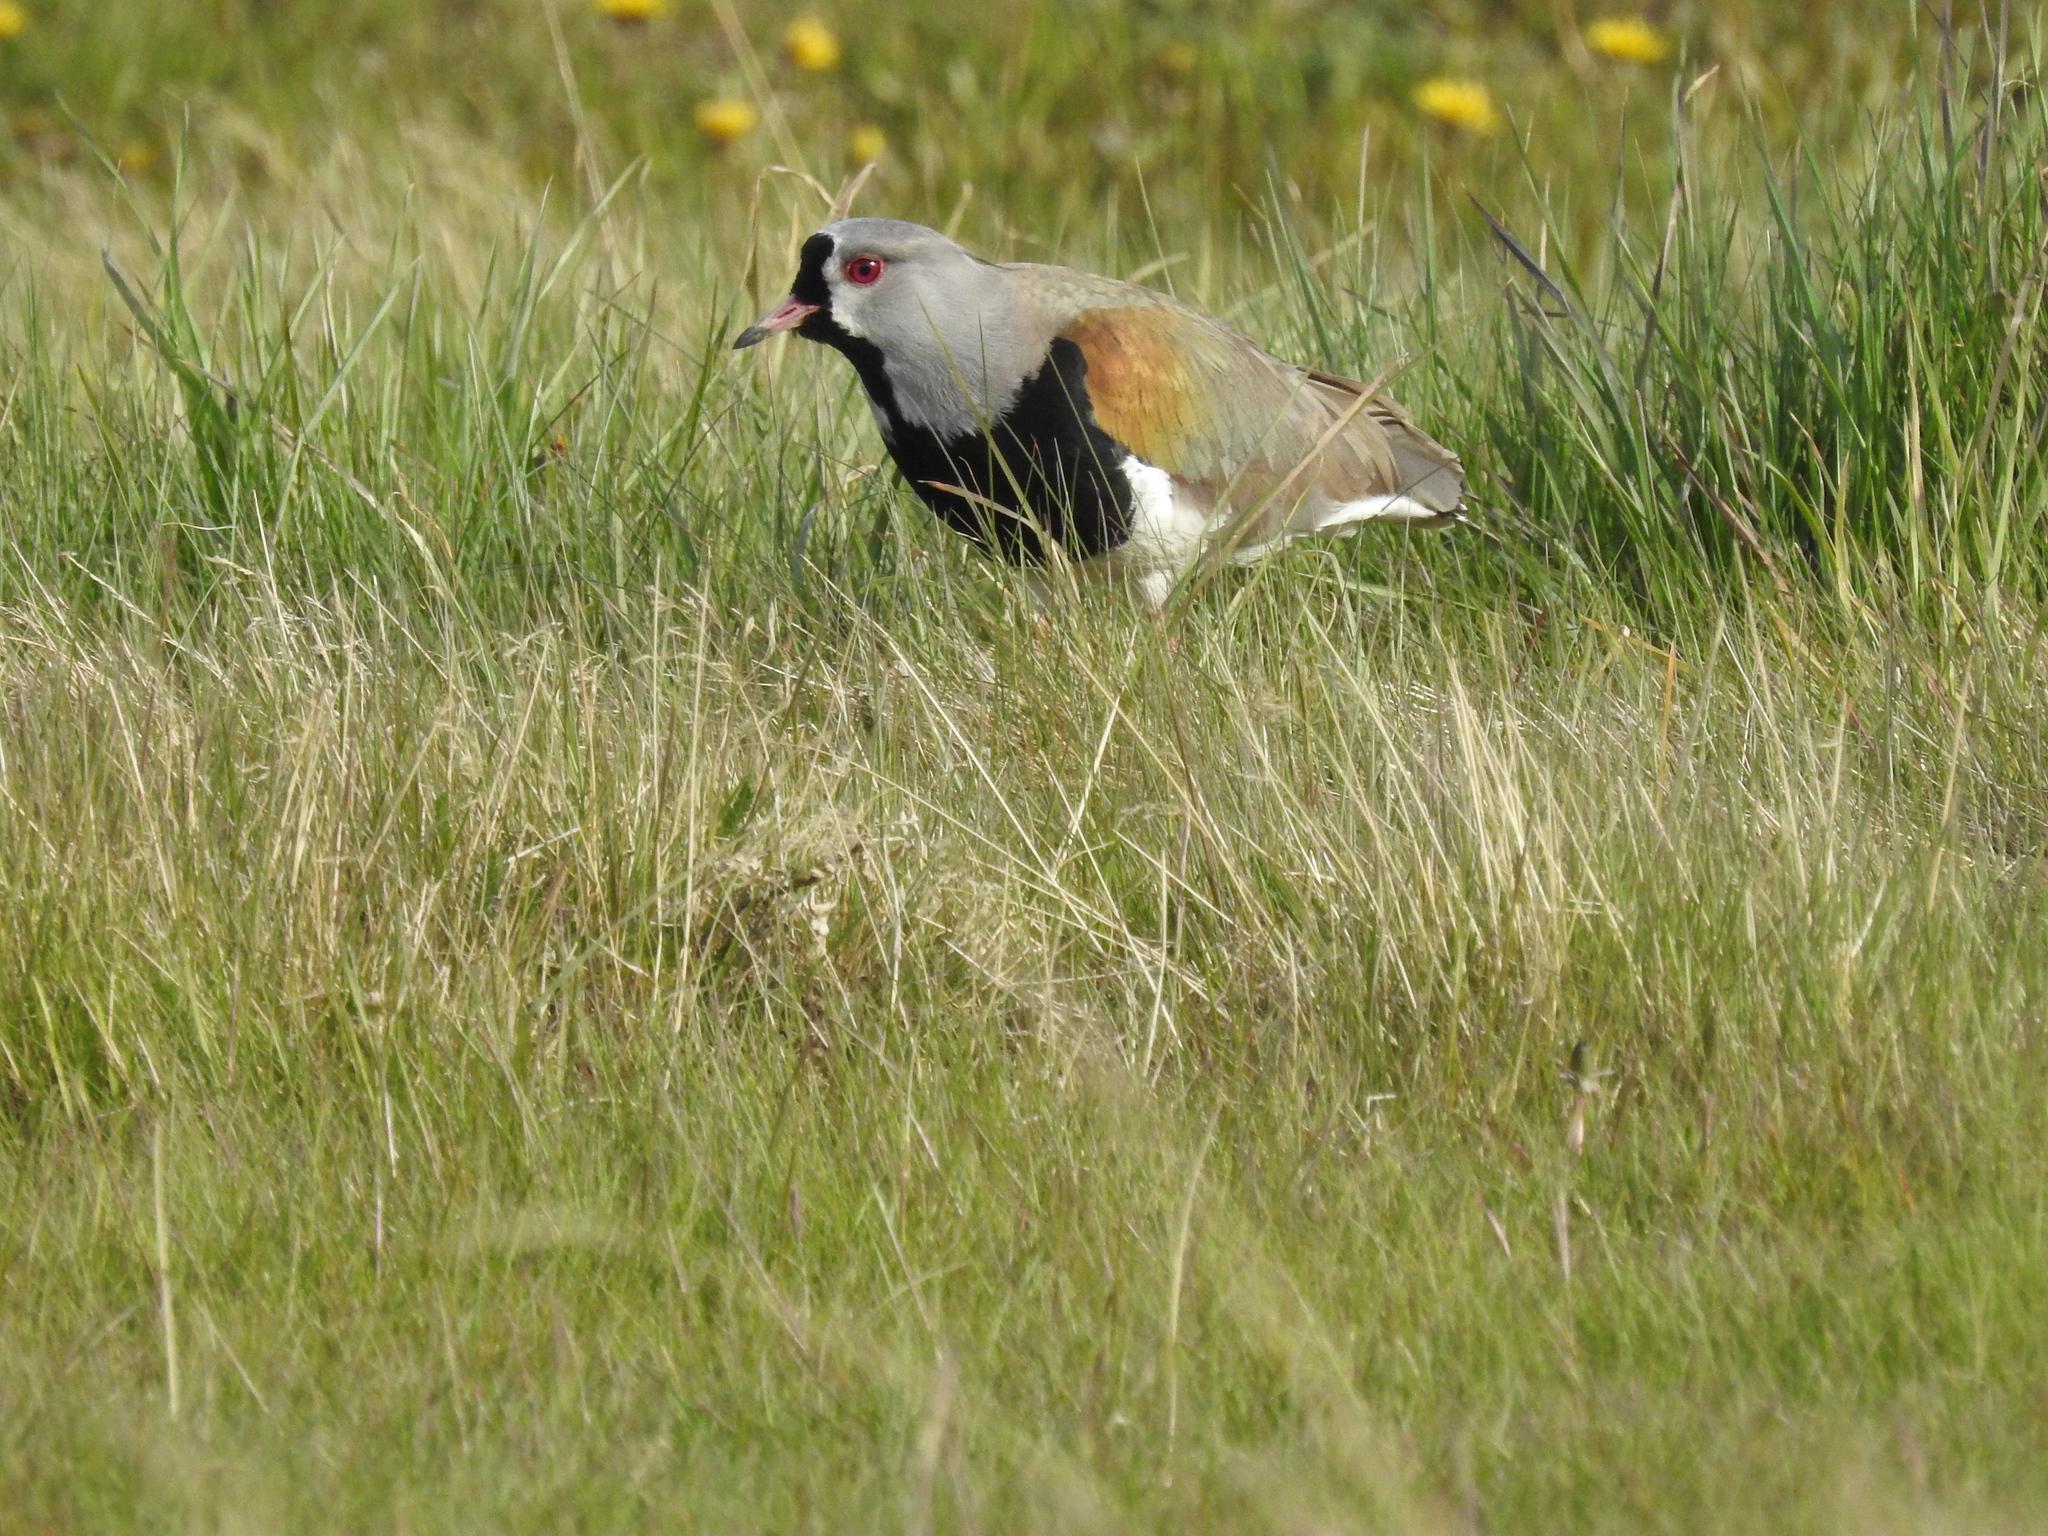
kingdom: Animalia
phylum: Chordata
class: Aves
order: Charadriiformes
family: Charadriidae
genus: Vanellus
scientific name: Vanellus chilensis
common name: Southern lapwing
